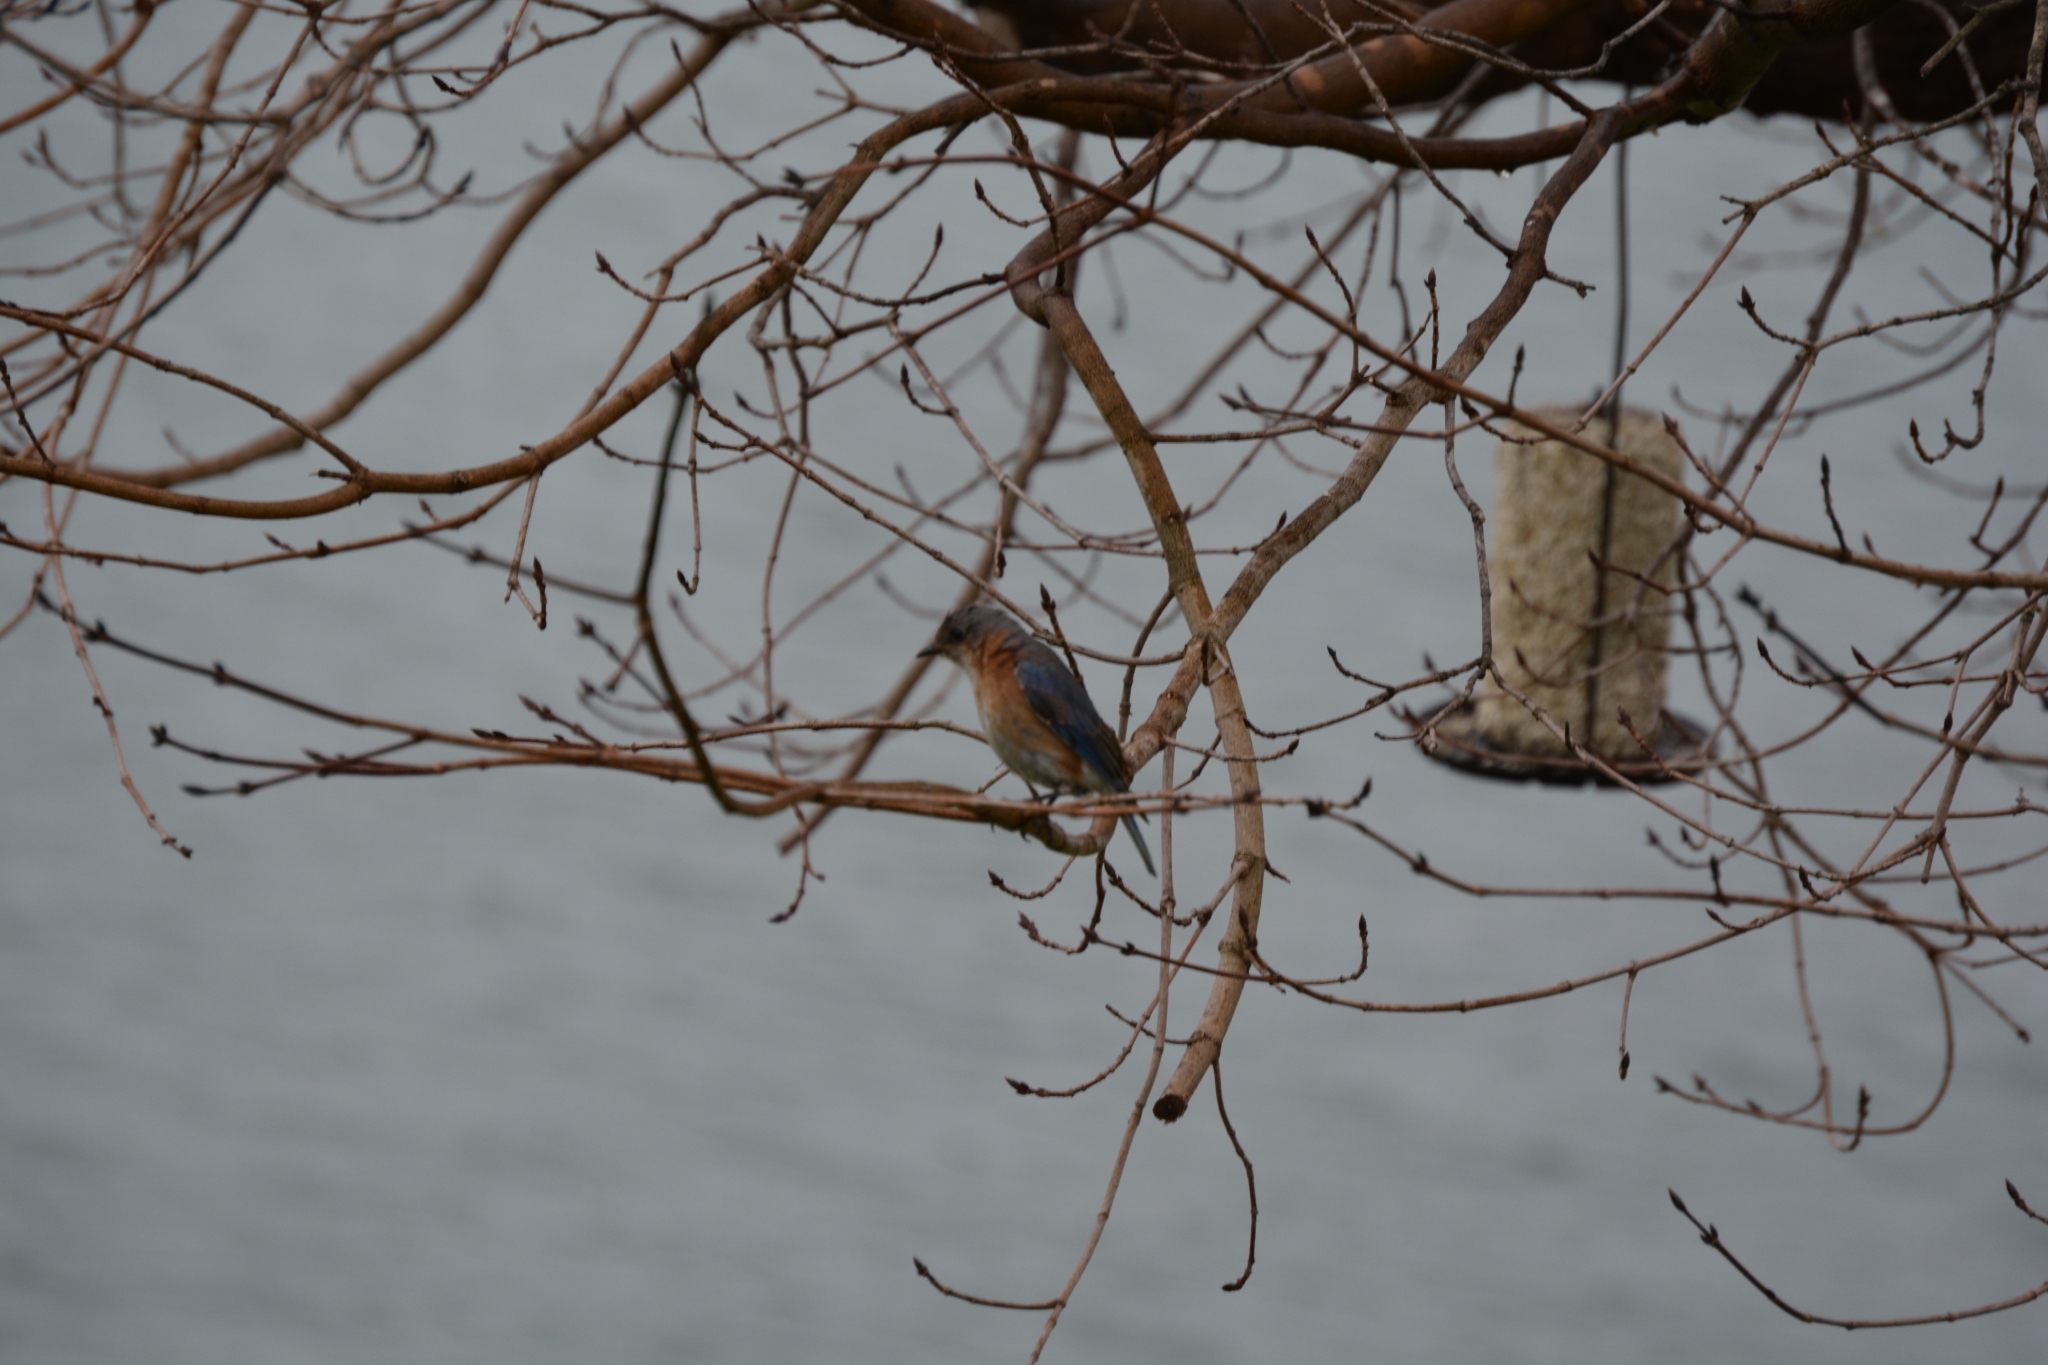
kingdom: Animalia
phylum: Chordata
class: Aves
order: Passeriformes
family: Turdidae
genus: Sialia
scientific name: Sialia sialis
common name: Eastern bluebird
